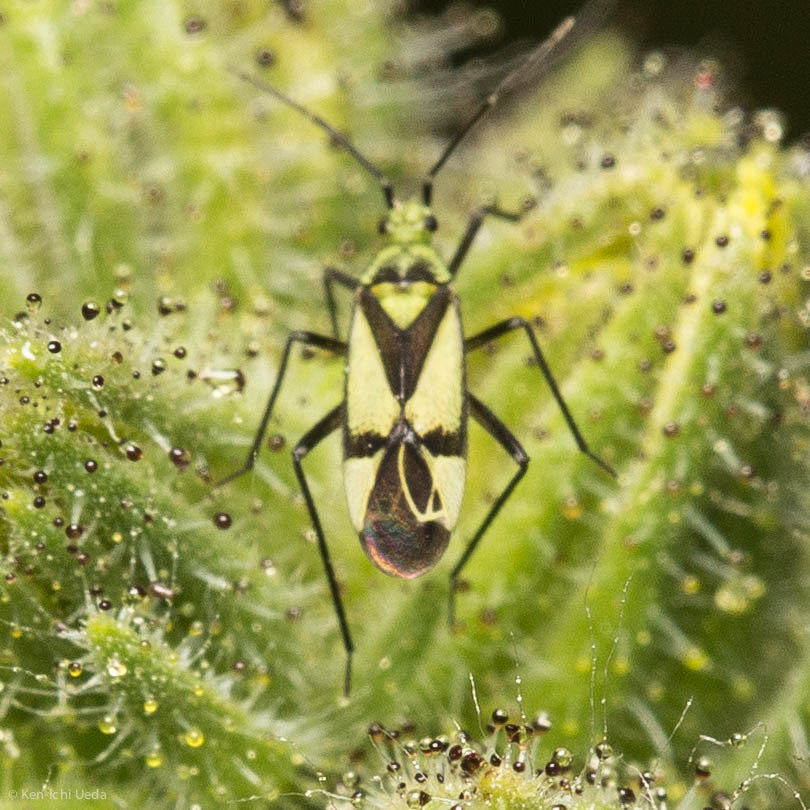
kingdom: Animalia
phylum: Arthropoda
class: Insecta
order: Hemiptera
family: Miridae
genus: Macrotylus
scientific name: Macrotylus essigi
